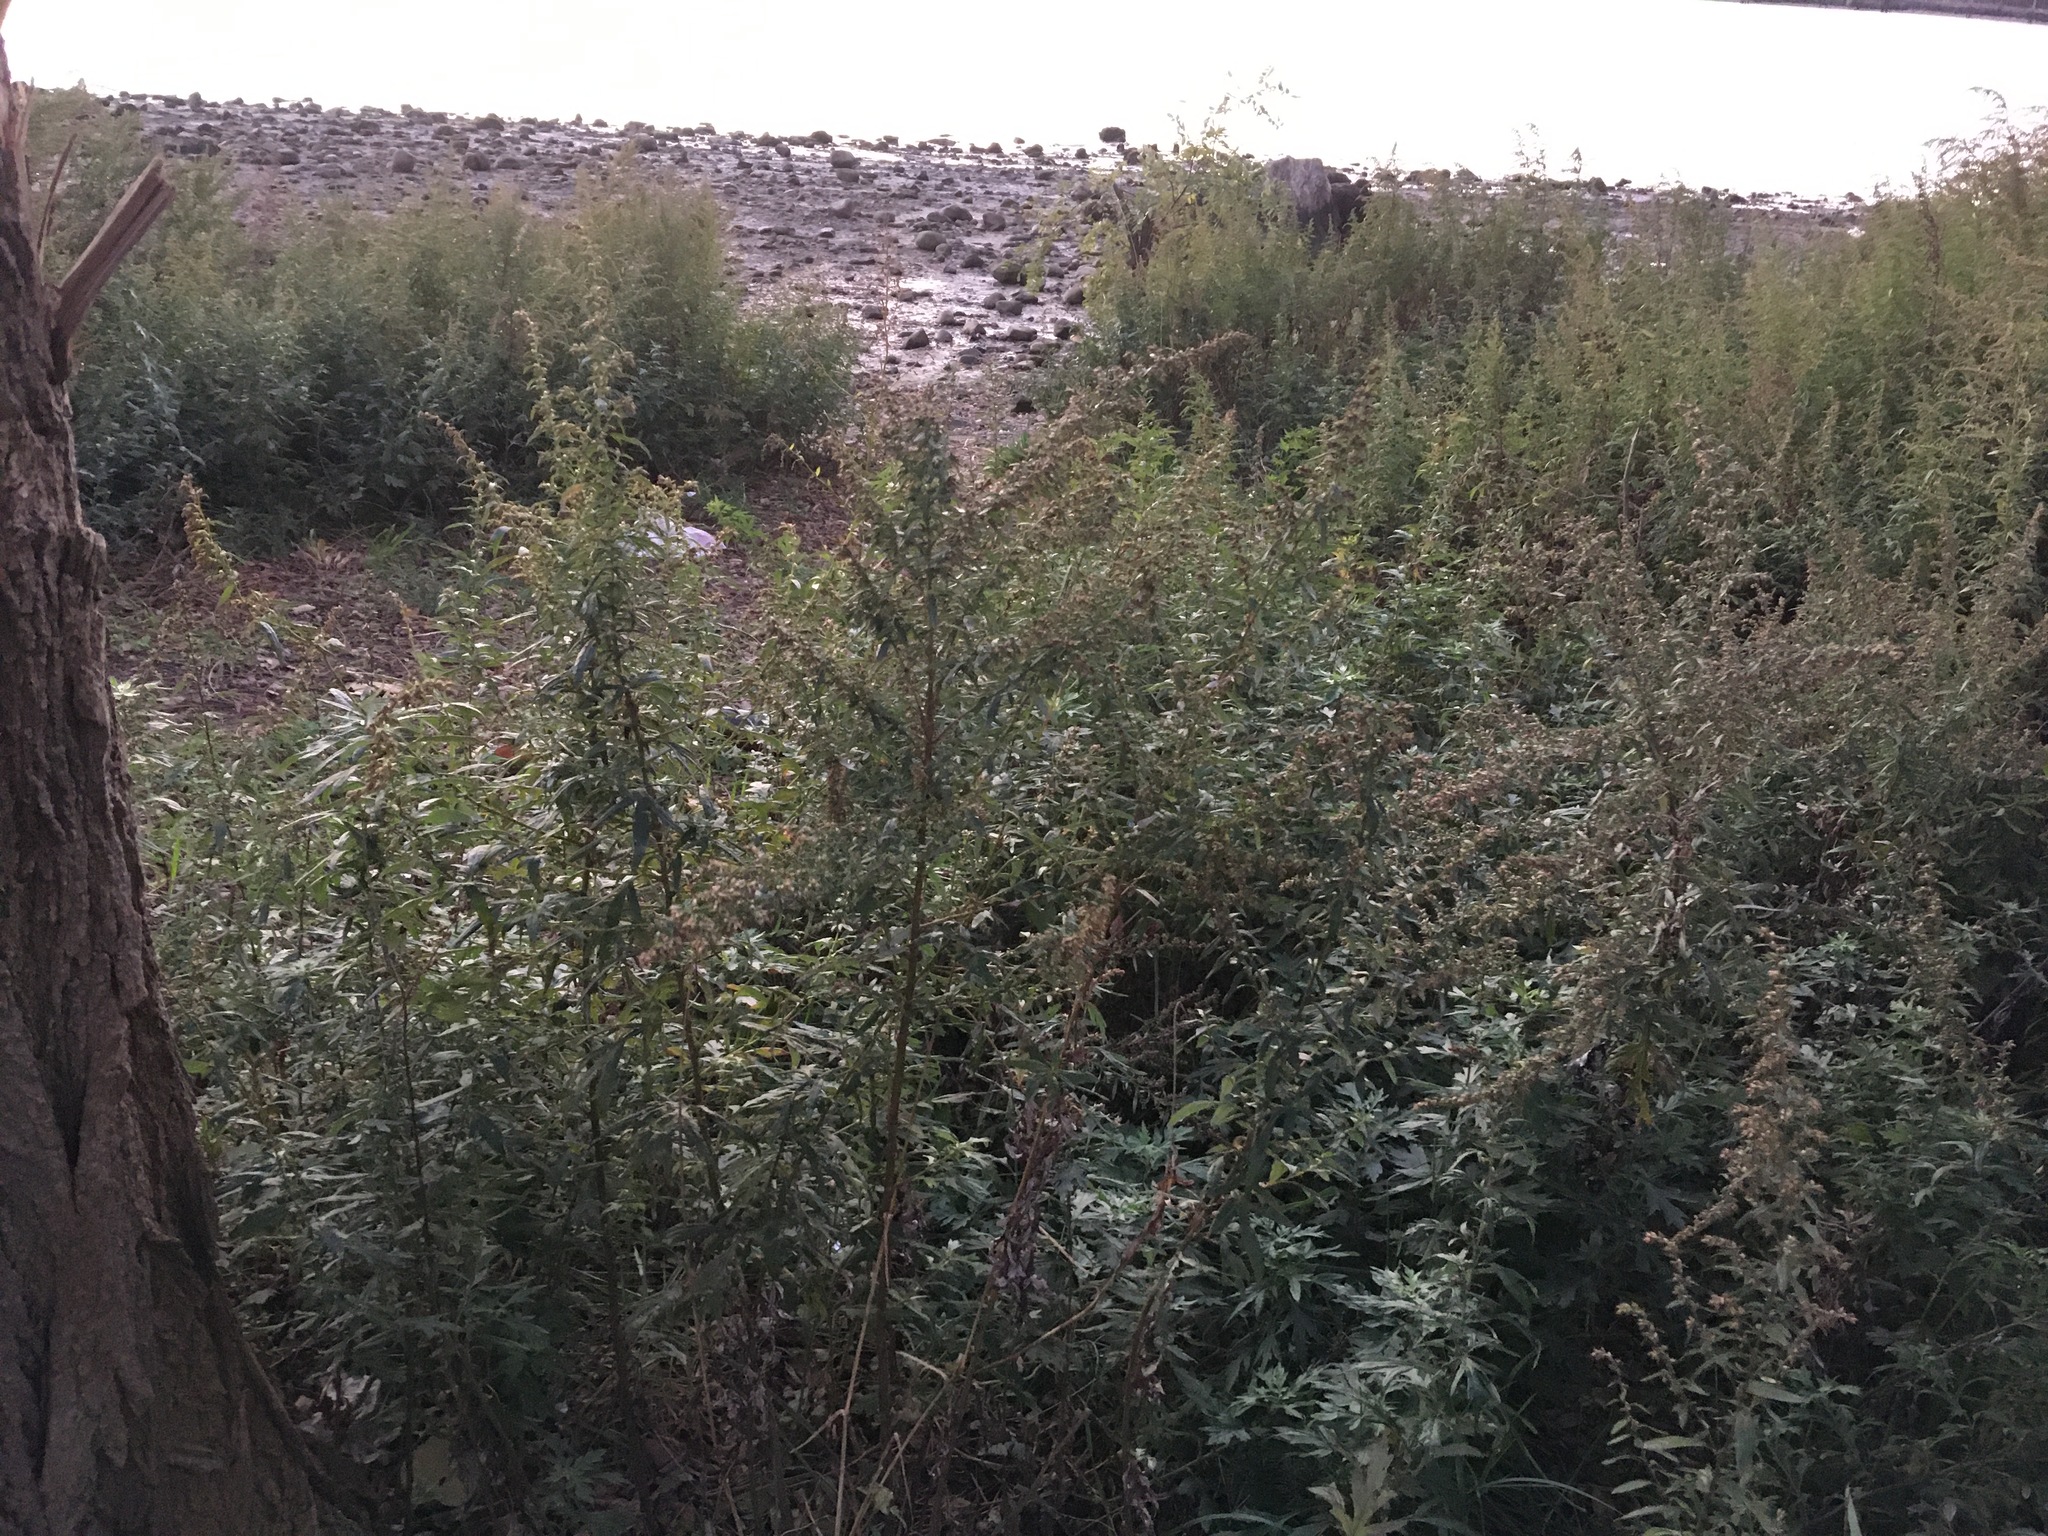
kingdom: Plantae
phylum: Tracheophyta
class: Magnoliopsida
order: Asterales
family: Asteraceae
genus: Artemisia
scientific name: Artemisia vulgaris
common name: Mugwort
